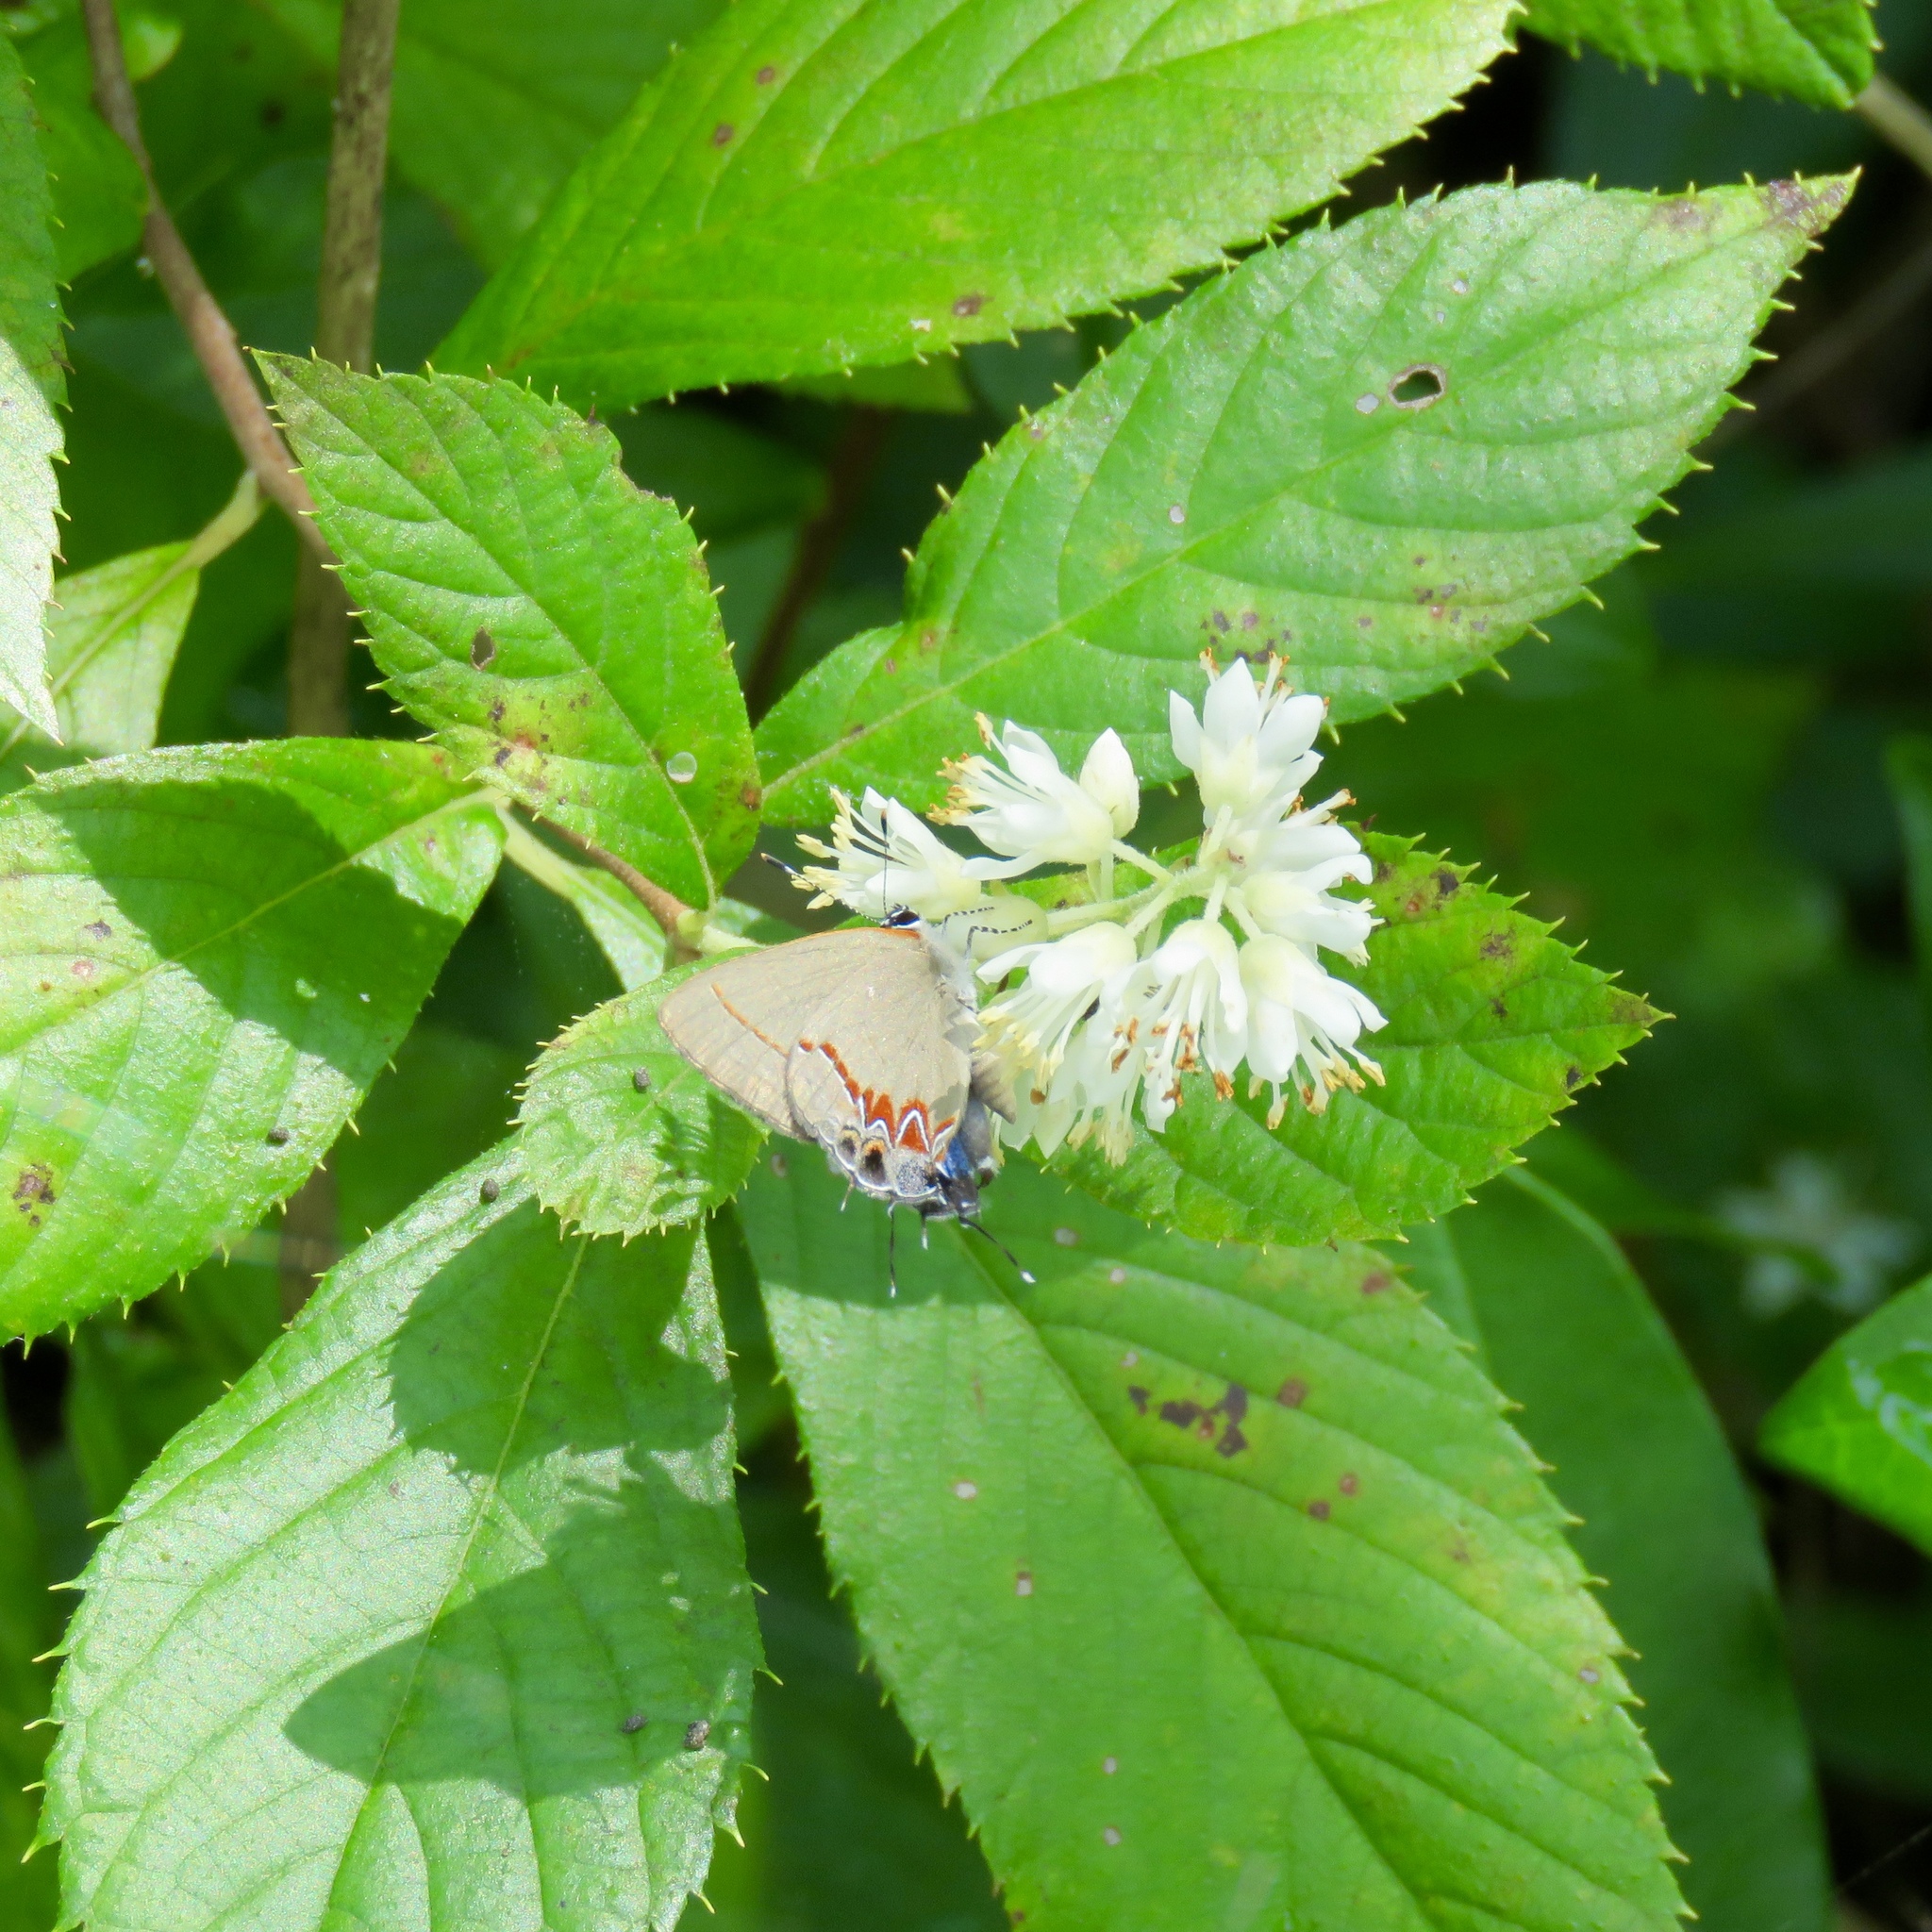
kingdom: Animalia
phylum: Arthropoda
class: Insecta
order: Lepidoptera
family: Lycaenidae
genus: Calycopis
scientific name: Calycopis
